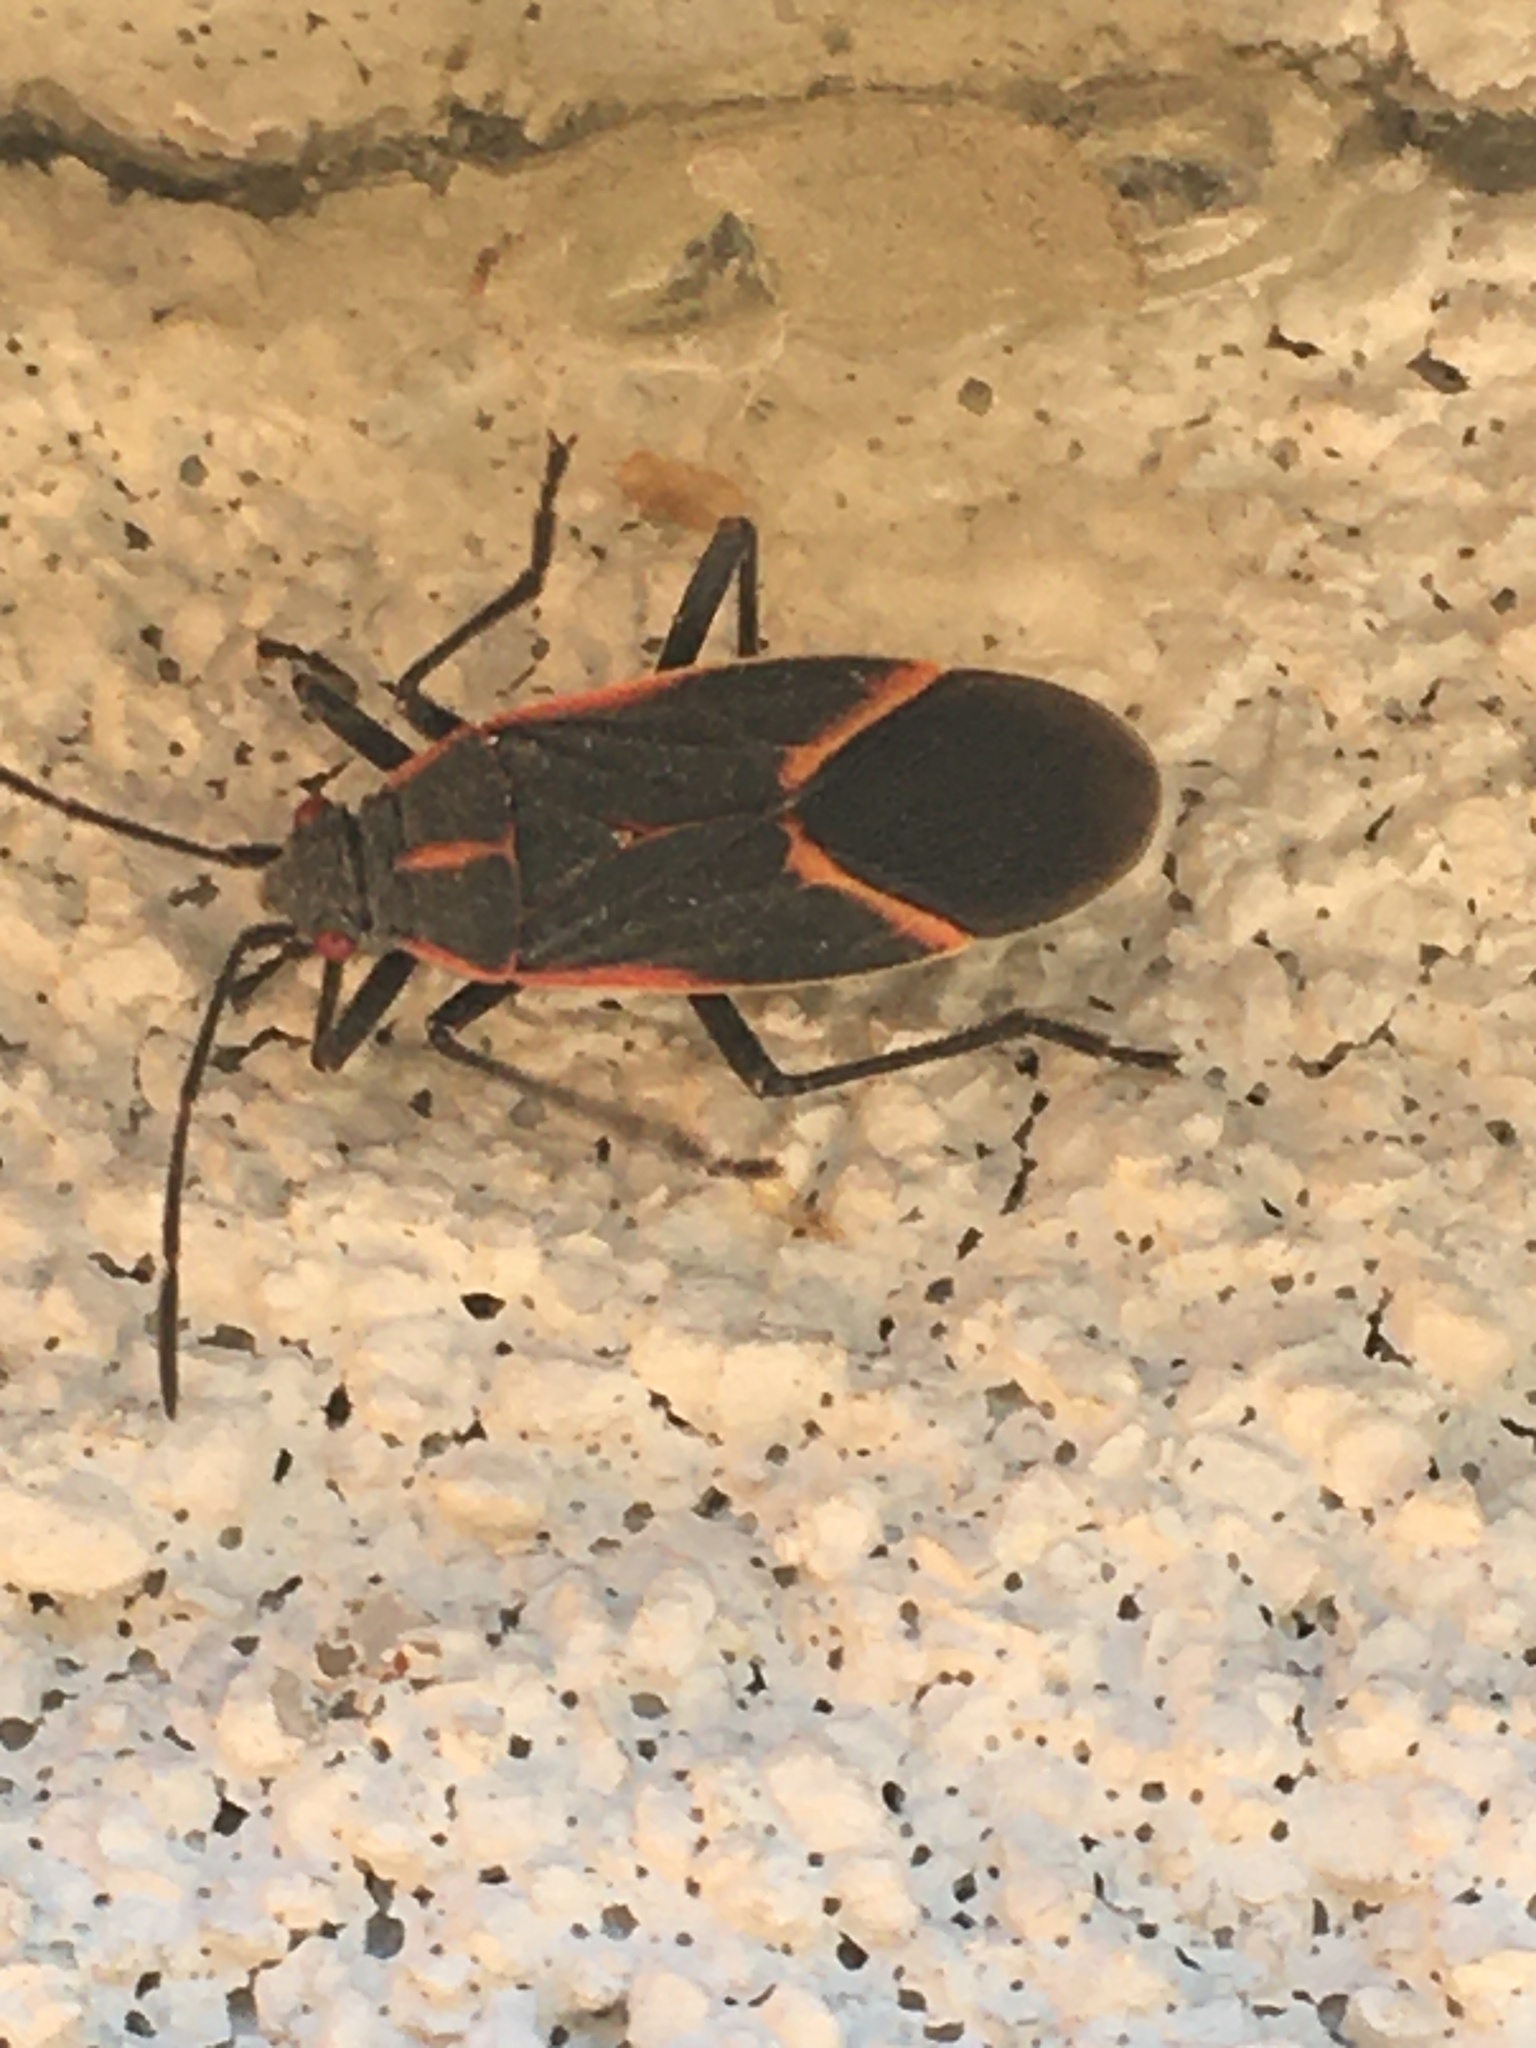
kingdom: Animalia
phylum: Arthropoda
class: Insecta
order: Hemiptera
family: Rhopalidae
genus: Boisea
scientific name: Boisea trivittata
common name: Boxelder bug
